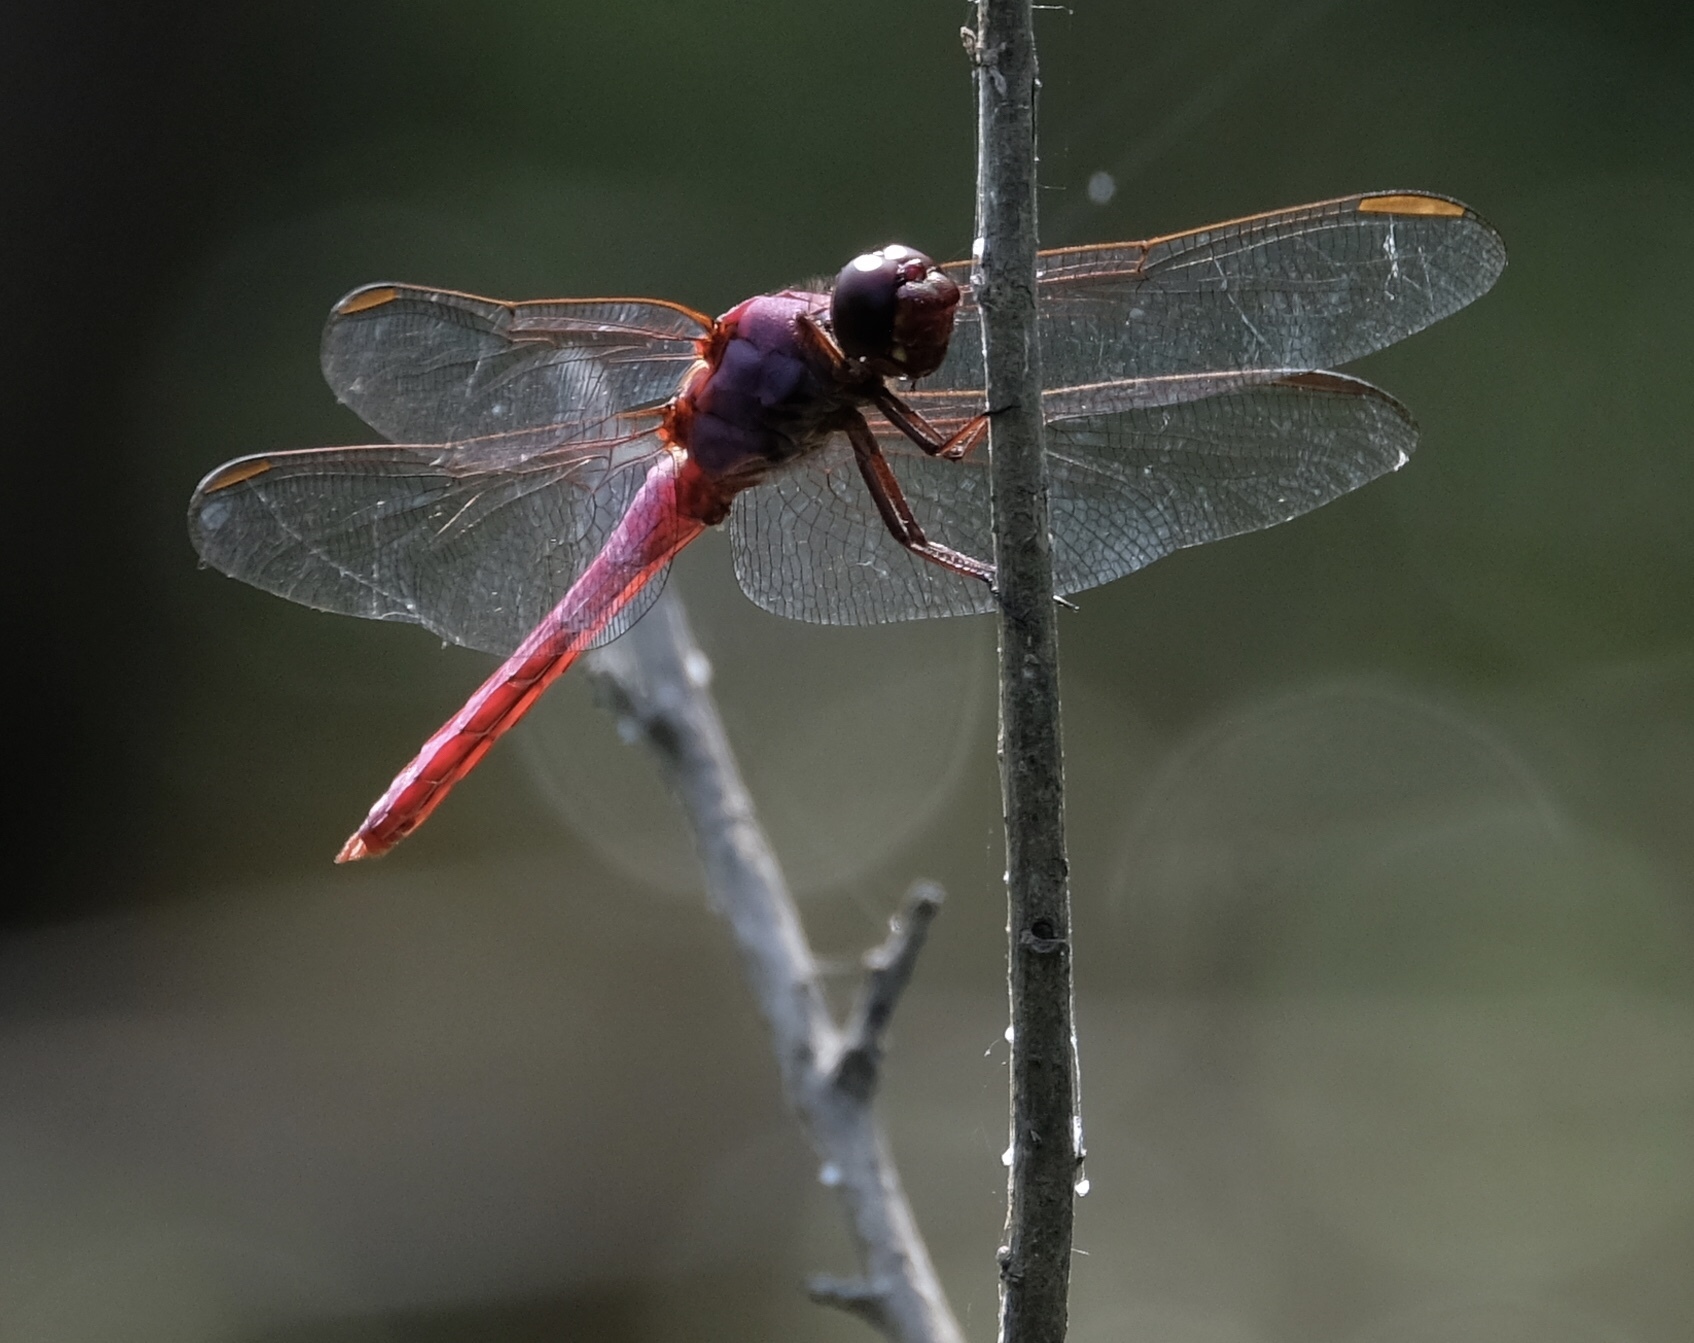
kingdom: Animalia
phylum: Arthropoda
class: Insecta
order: Odonata
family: Libellulidae
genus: Orthemis
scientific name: Orthemis ferruginea
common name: Roseate skimmer
